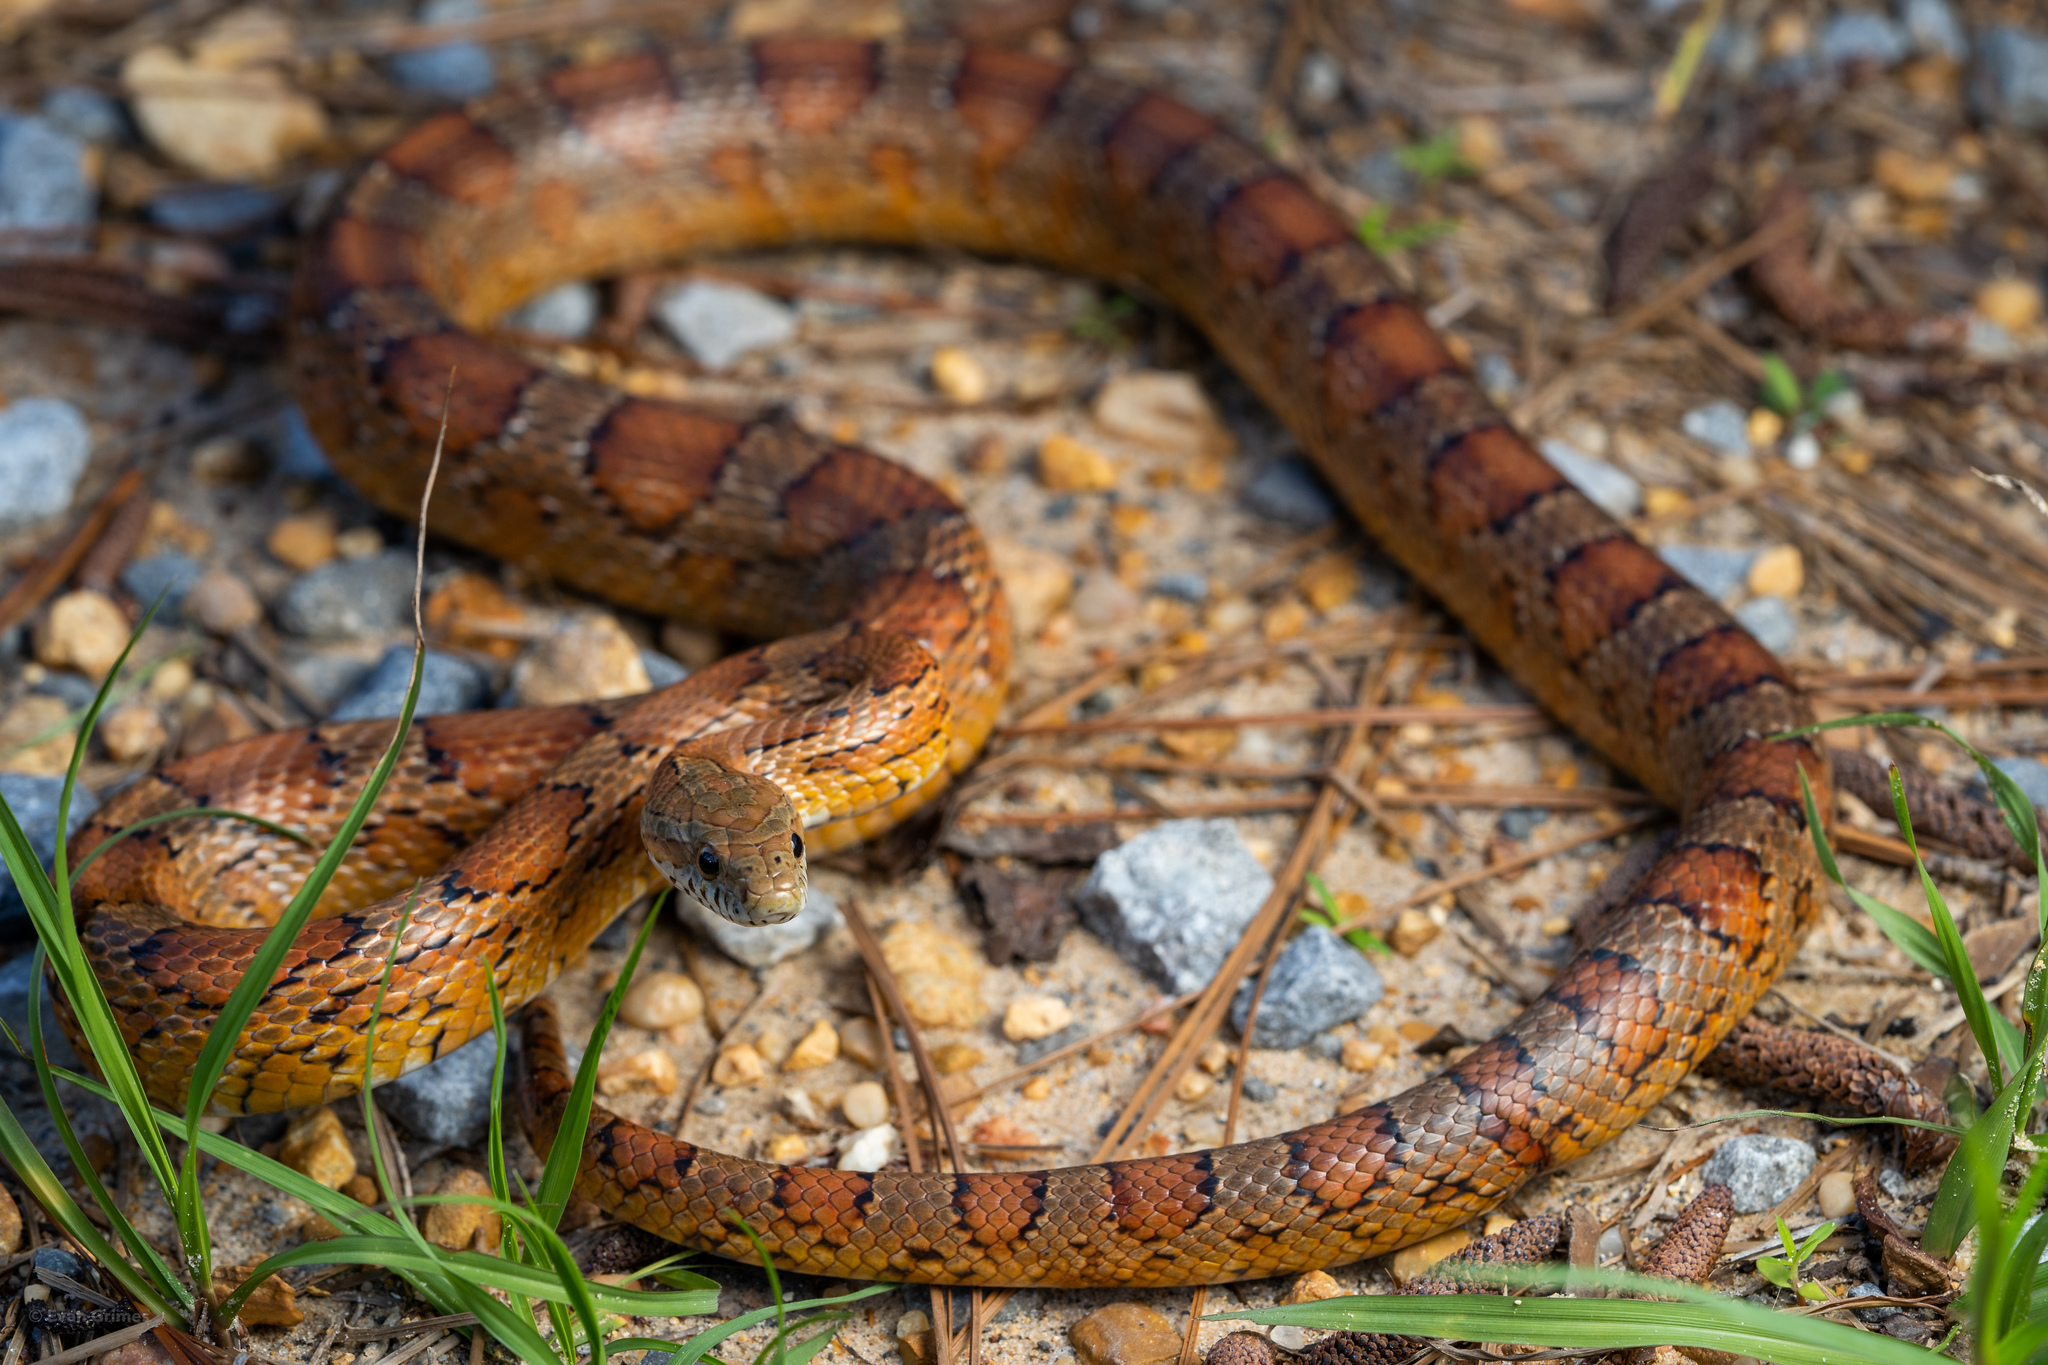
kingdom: Animalia
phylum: Chordata
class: Squamata
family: Colubridae
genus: Pantherophis
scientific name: Pantherophis guttatus
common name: Red cornsnake
